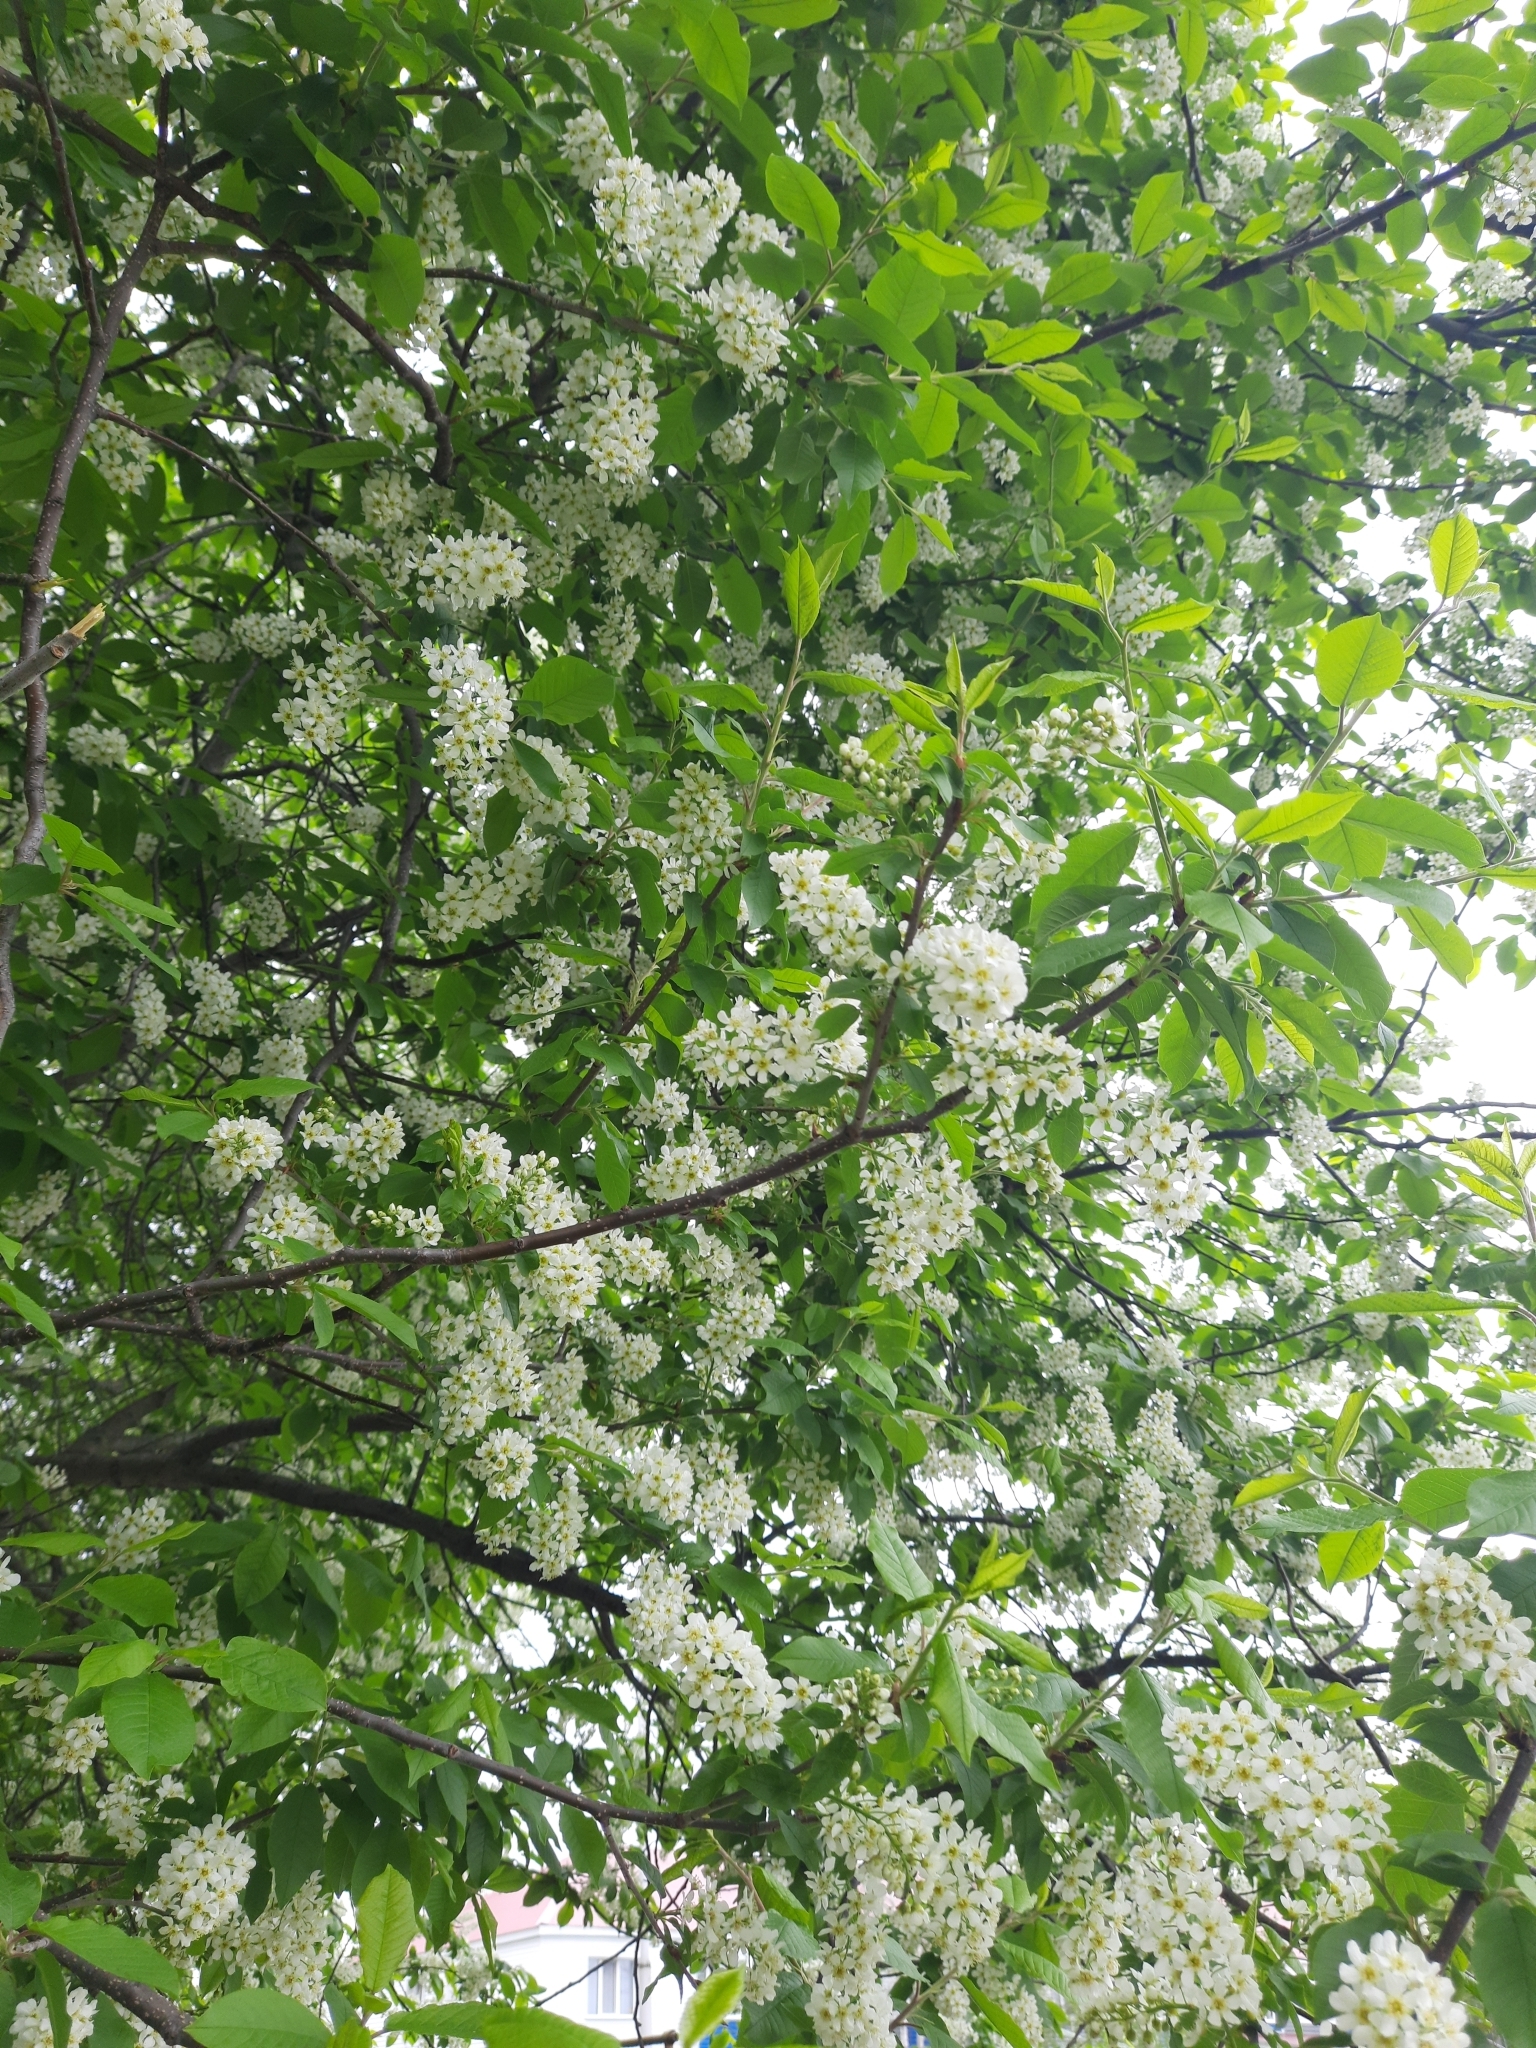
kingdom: Plantae
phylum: Tracheophyta
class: Magnoliopsida
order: Rosales
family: Rosaceae
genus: Prunus
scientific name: Prunus padus
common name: Bird cherry
